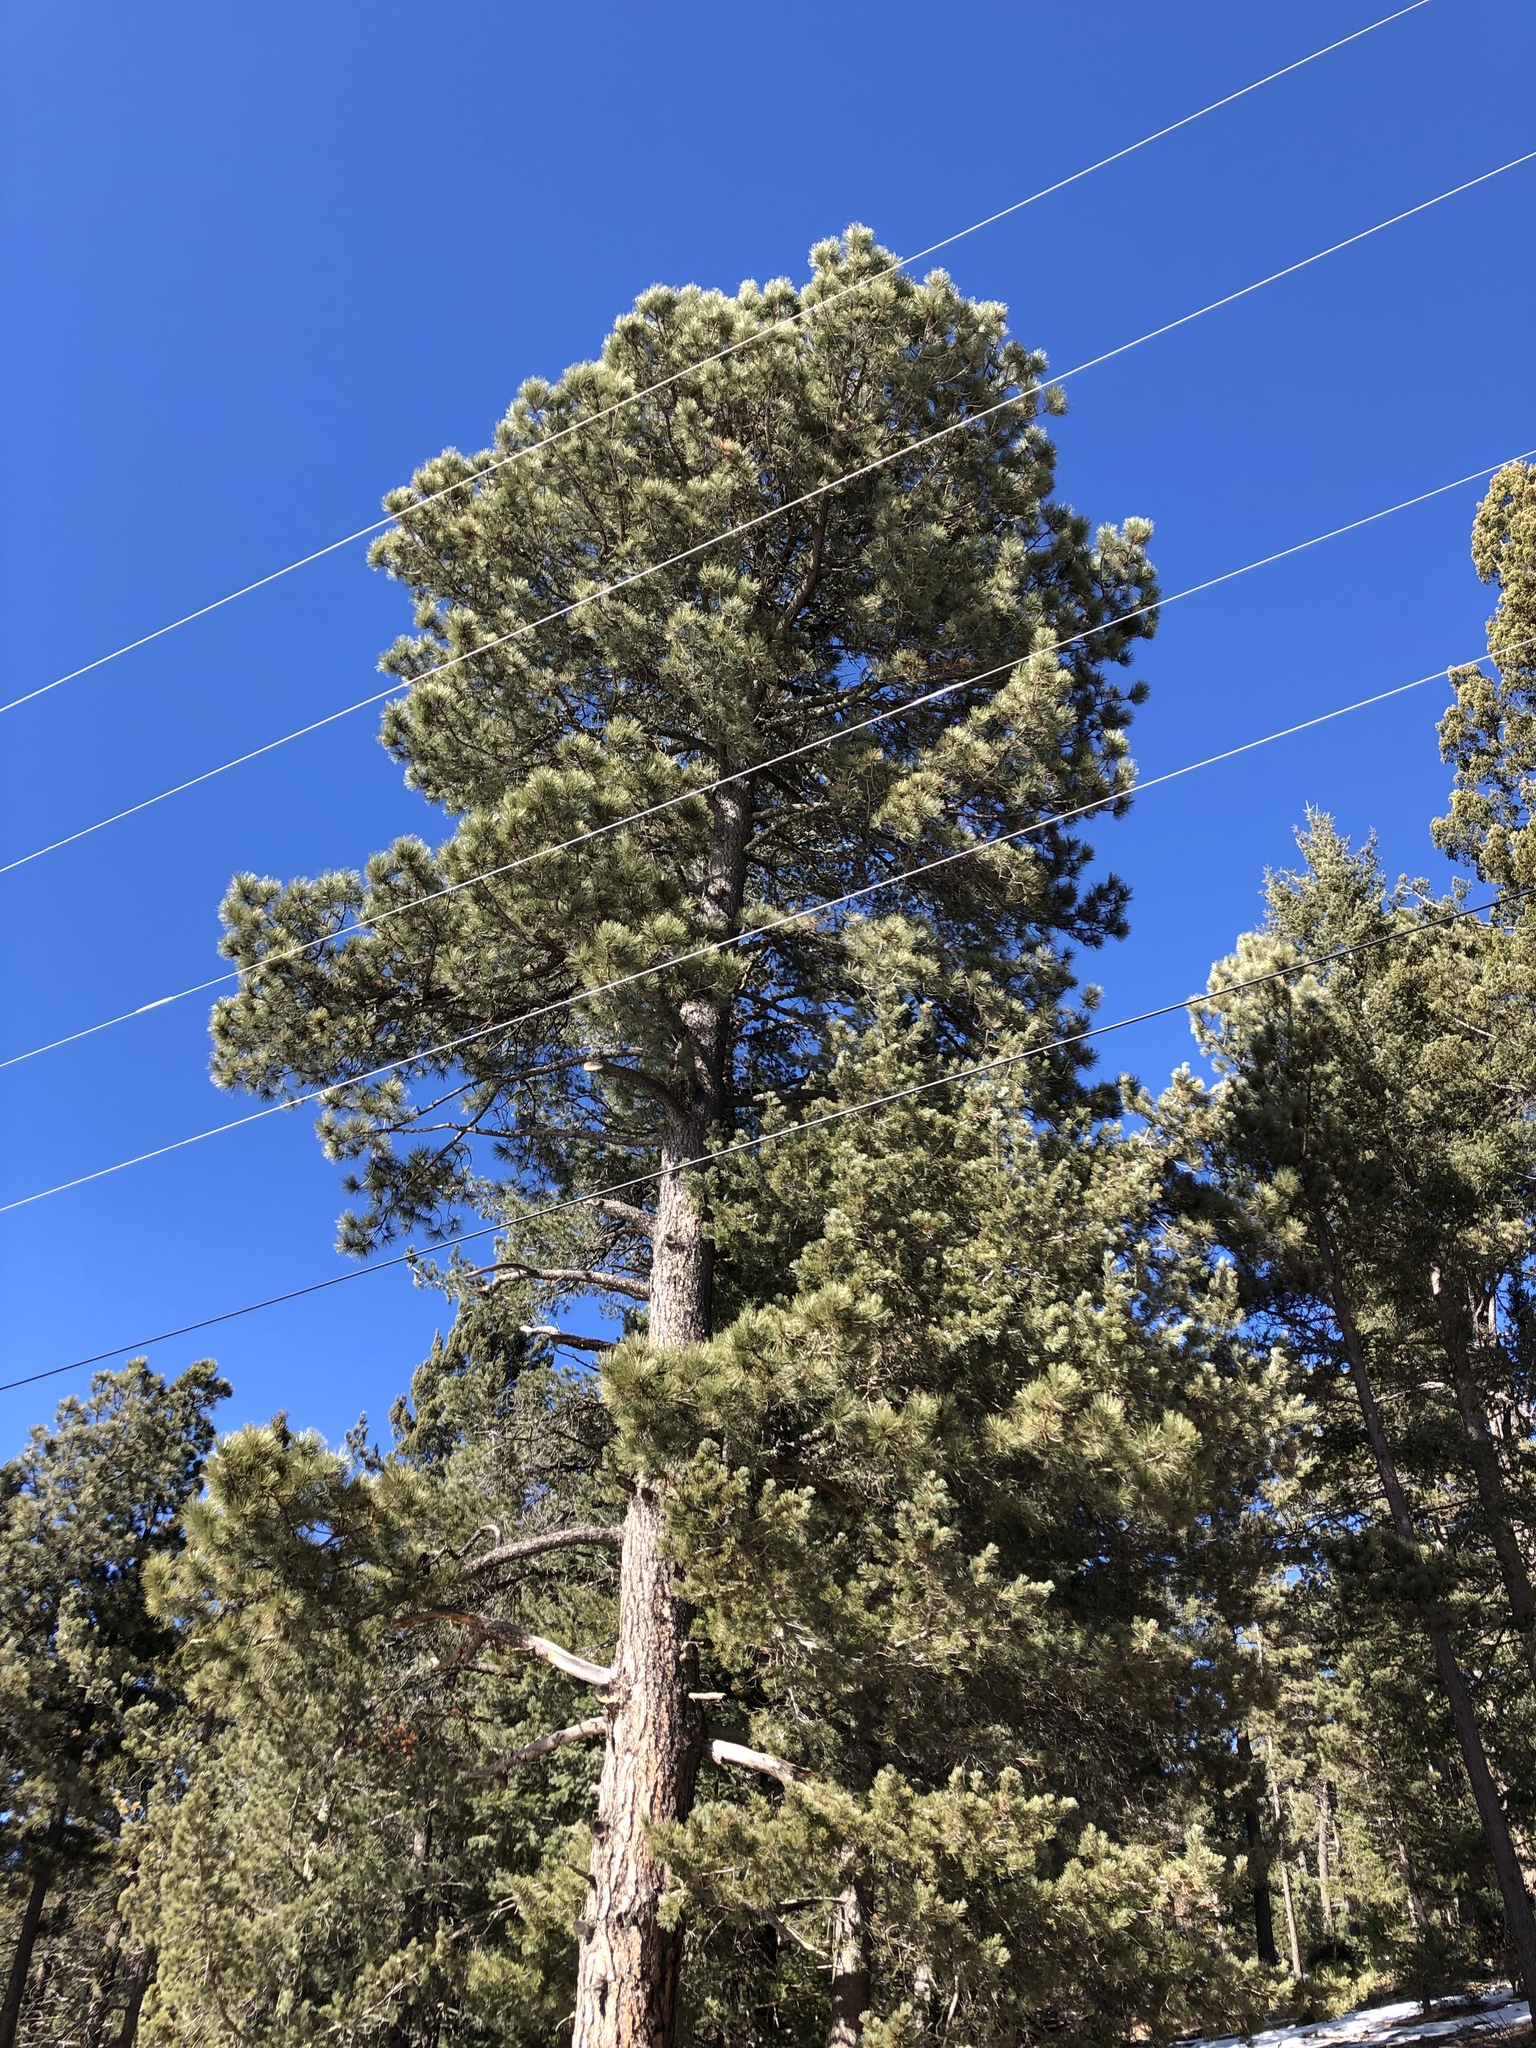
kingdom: Plantae
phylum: Tracheophyta
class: Pinopsida
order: Pinales
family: Pinaceae
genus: Pinus
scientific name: Pinus ponderosa
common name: Western yellow-pine
